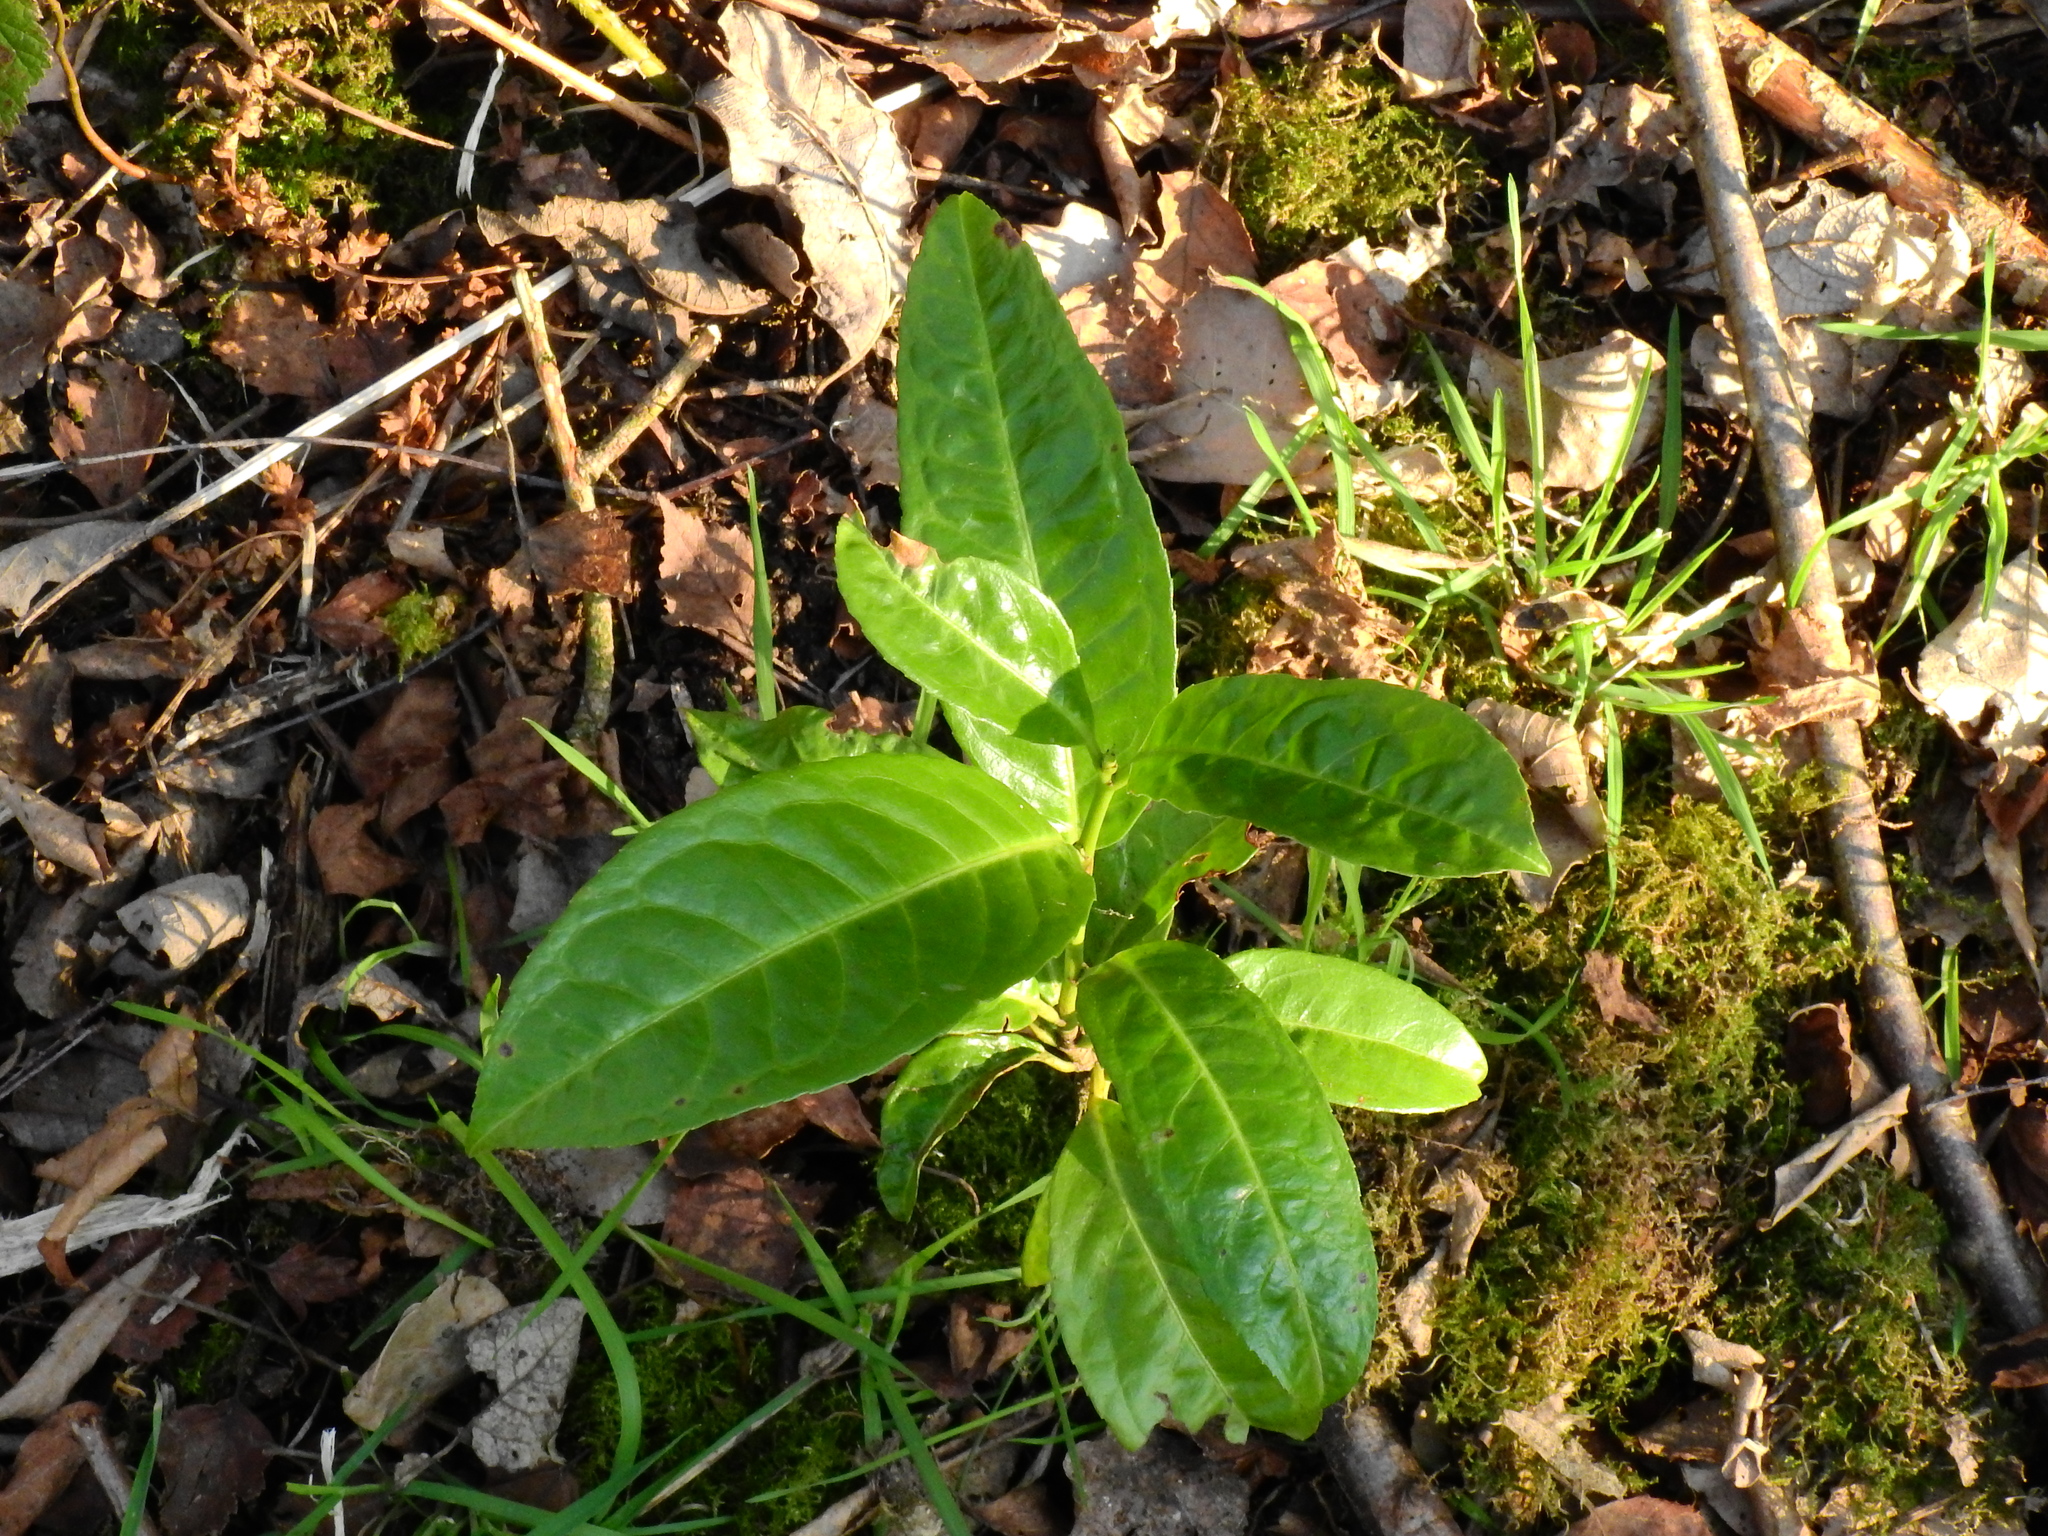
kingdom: Plantae
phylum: Tracheophyta
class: Magnoliopsida
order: Rosales
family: Rosaceae
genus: Prunus
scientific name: Prunus laurocerasus
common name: Cherry laurel
